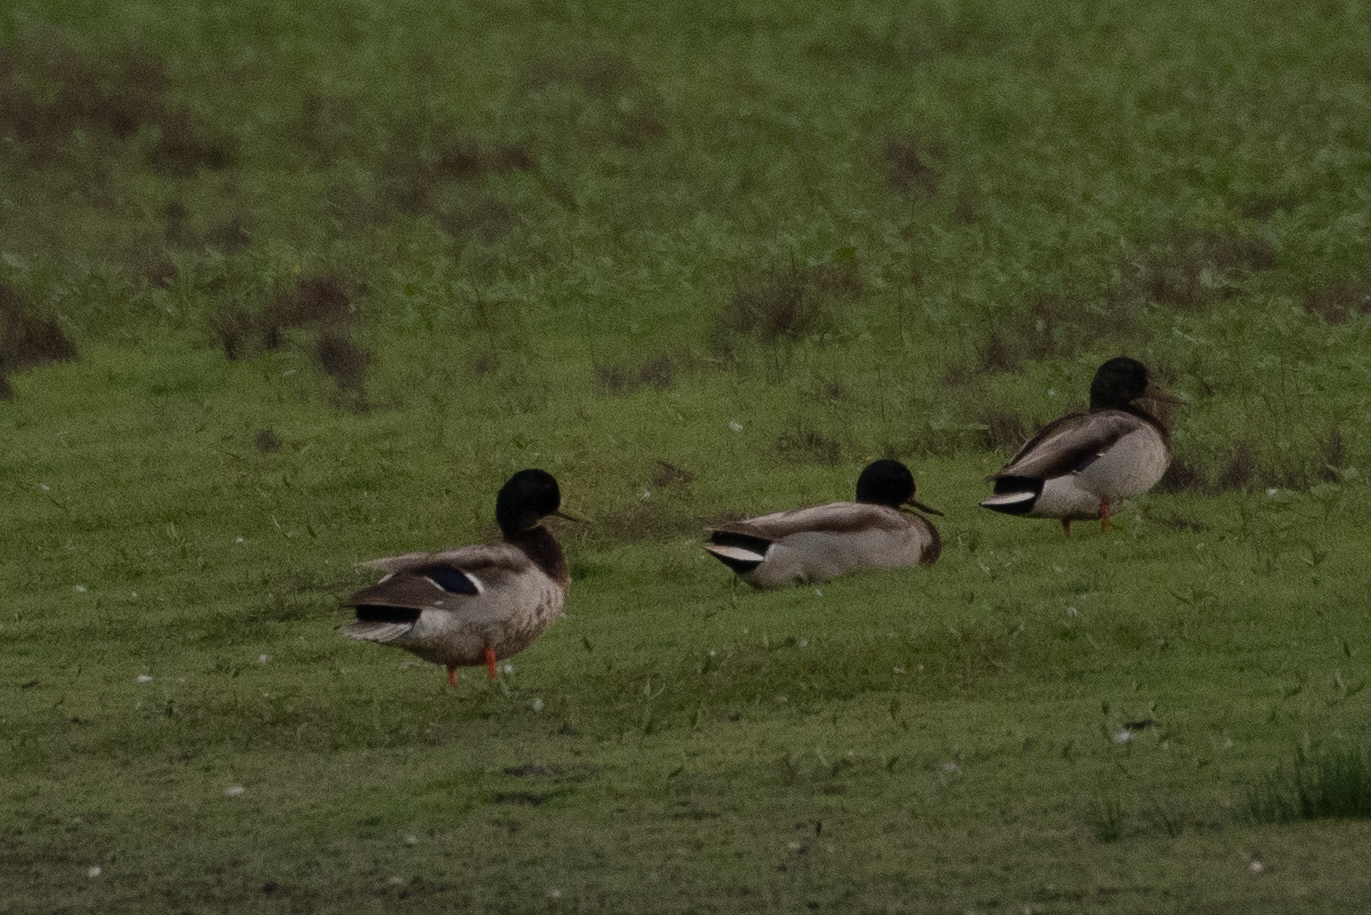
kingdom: Animalia
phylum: Chordata
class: Aves
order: Anseriformes
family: Anatidae
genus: Anas
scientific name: Anas platyrhynchos
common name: Mallard
